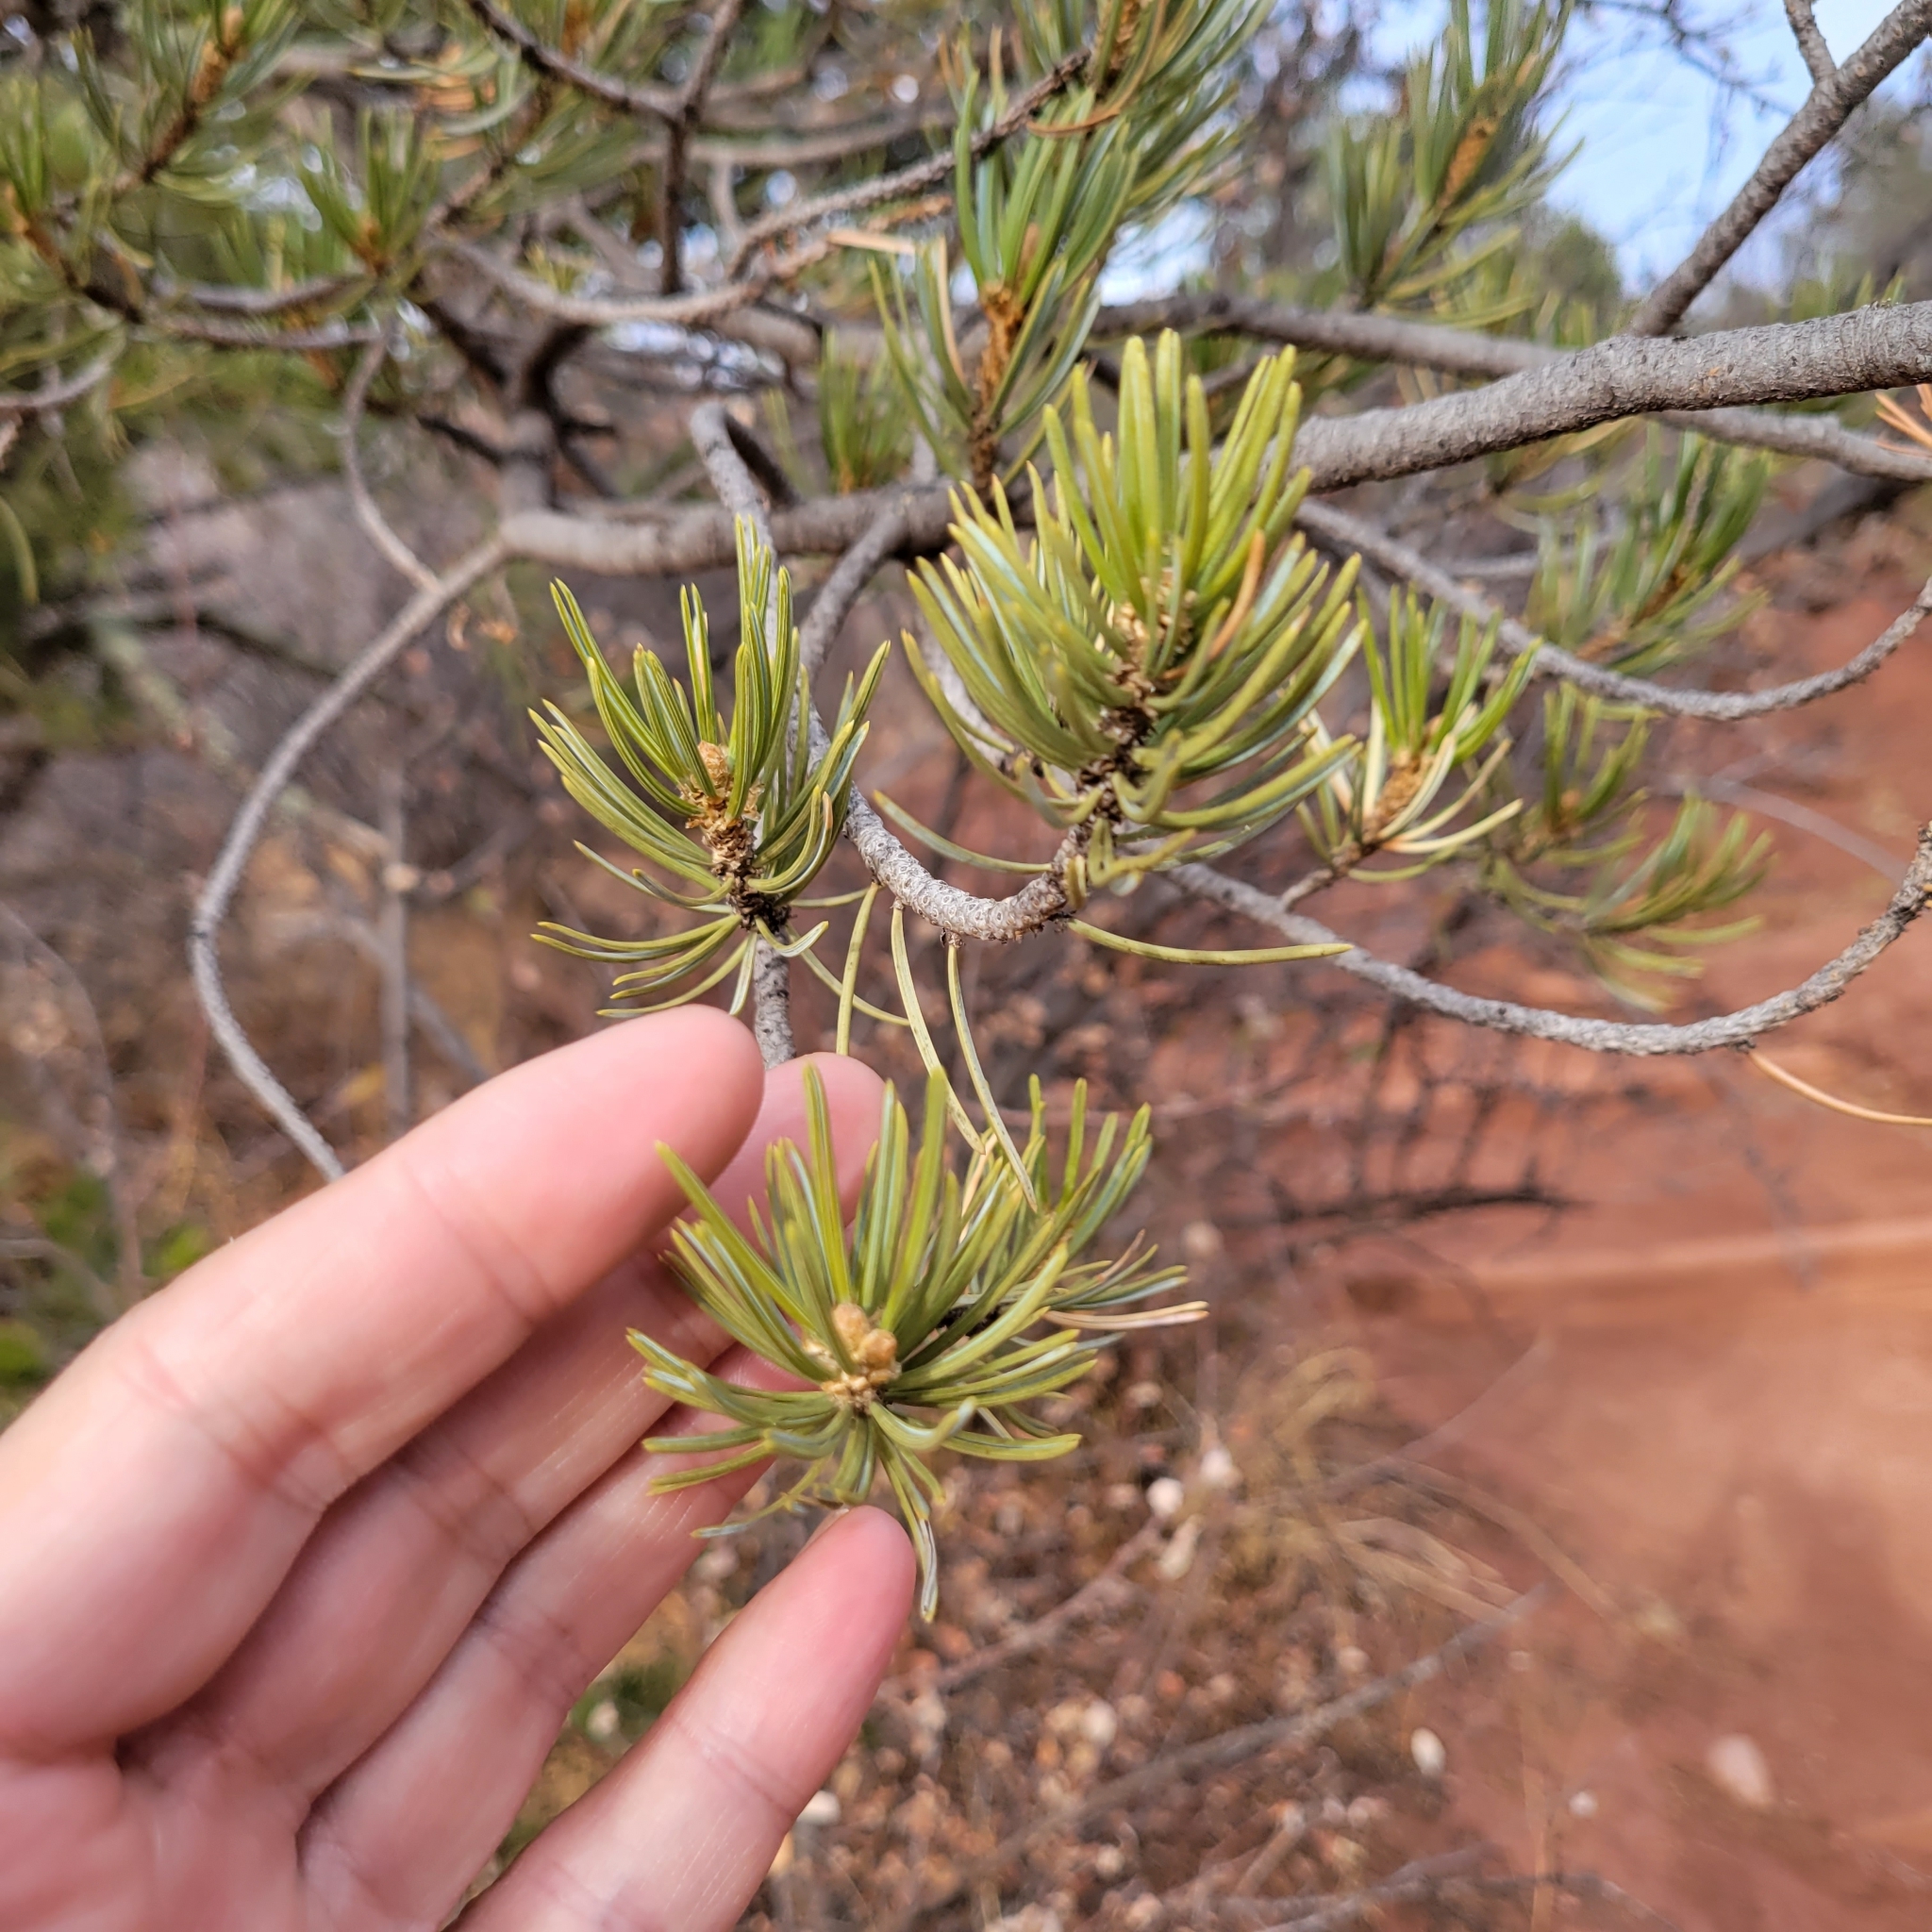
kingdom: Plantae
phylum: Tracheophyta
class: Pinopsida
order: Pinales
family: Pinaceae
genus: Pinus
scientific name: Pinus edulis
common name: Colorado pinyon
